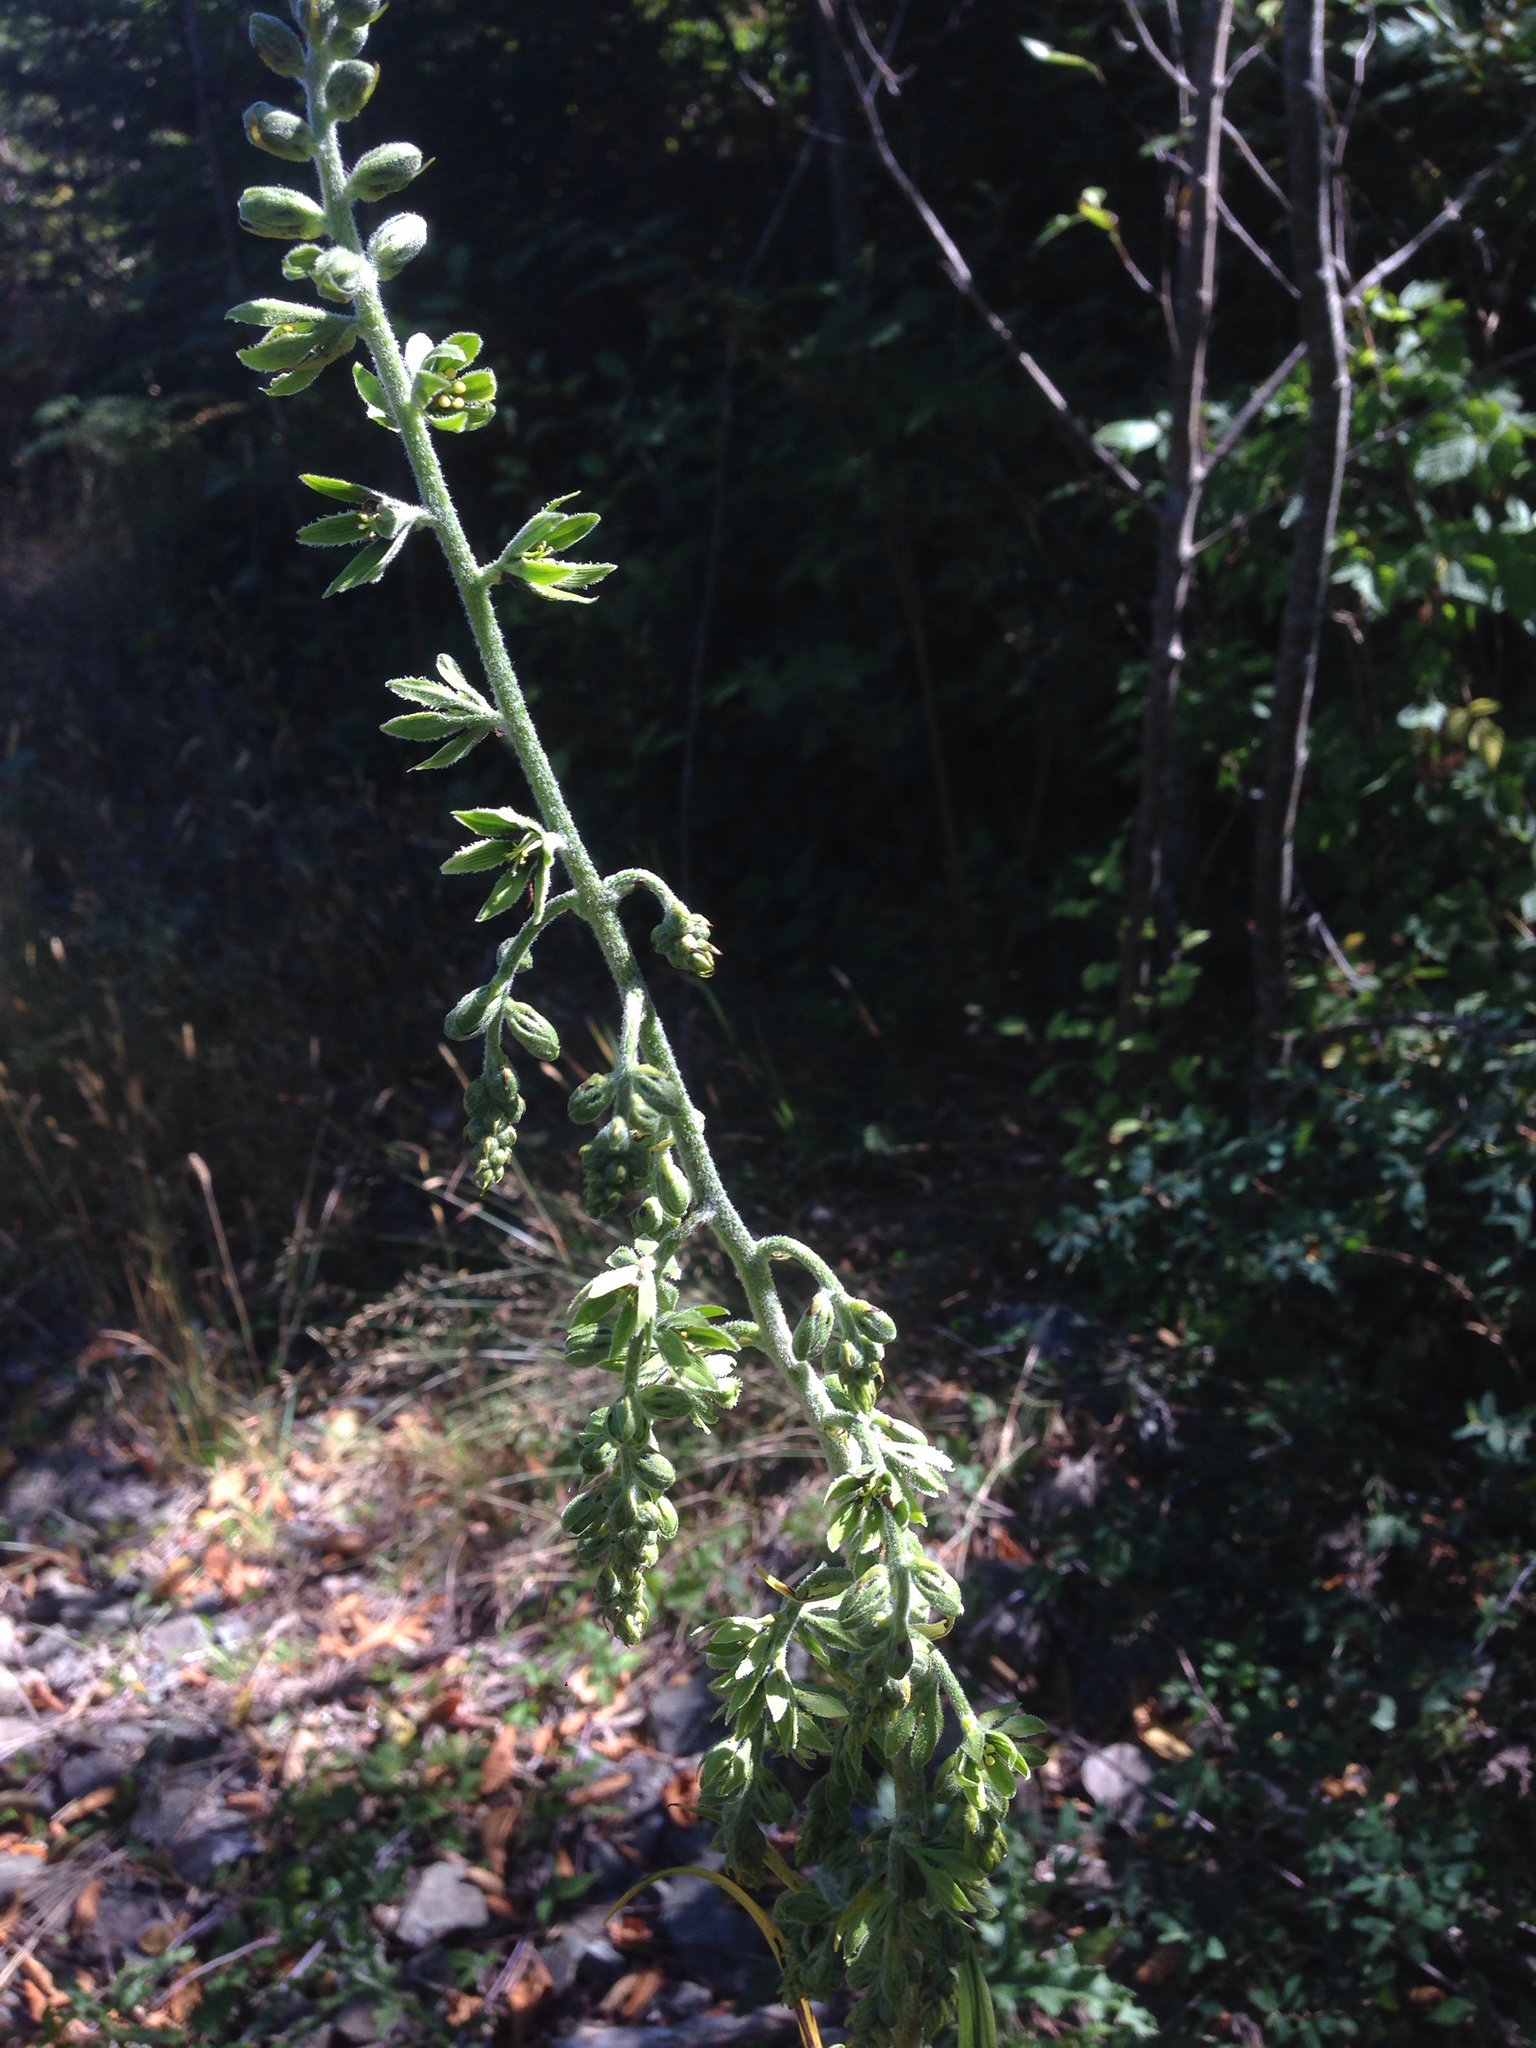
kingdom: Plantae
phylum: Tracheophyta
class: Liliopsida
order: Liliales
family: Melanthiaceae
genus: Veratrum
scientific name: Veratrum viride
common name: American false hellebore
